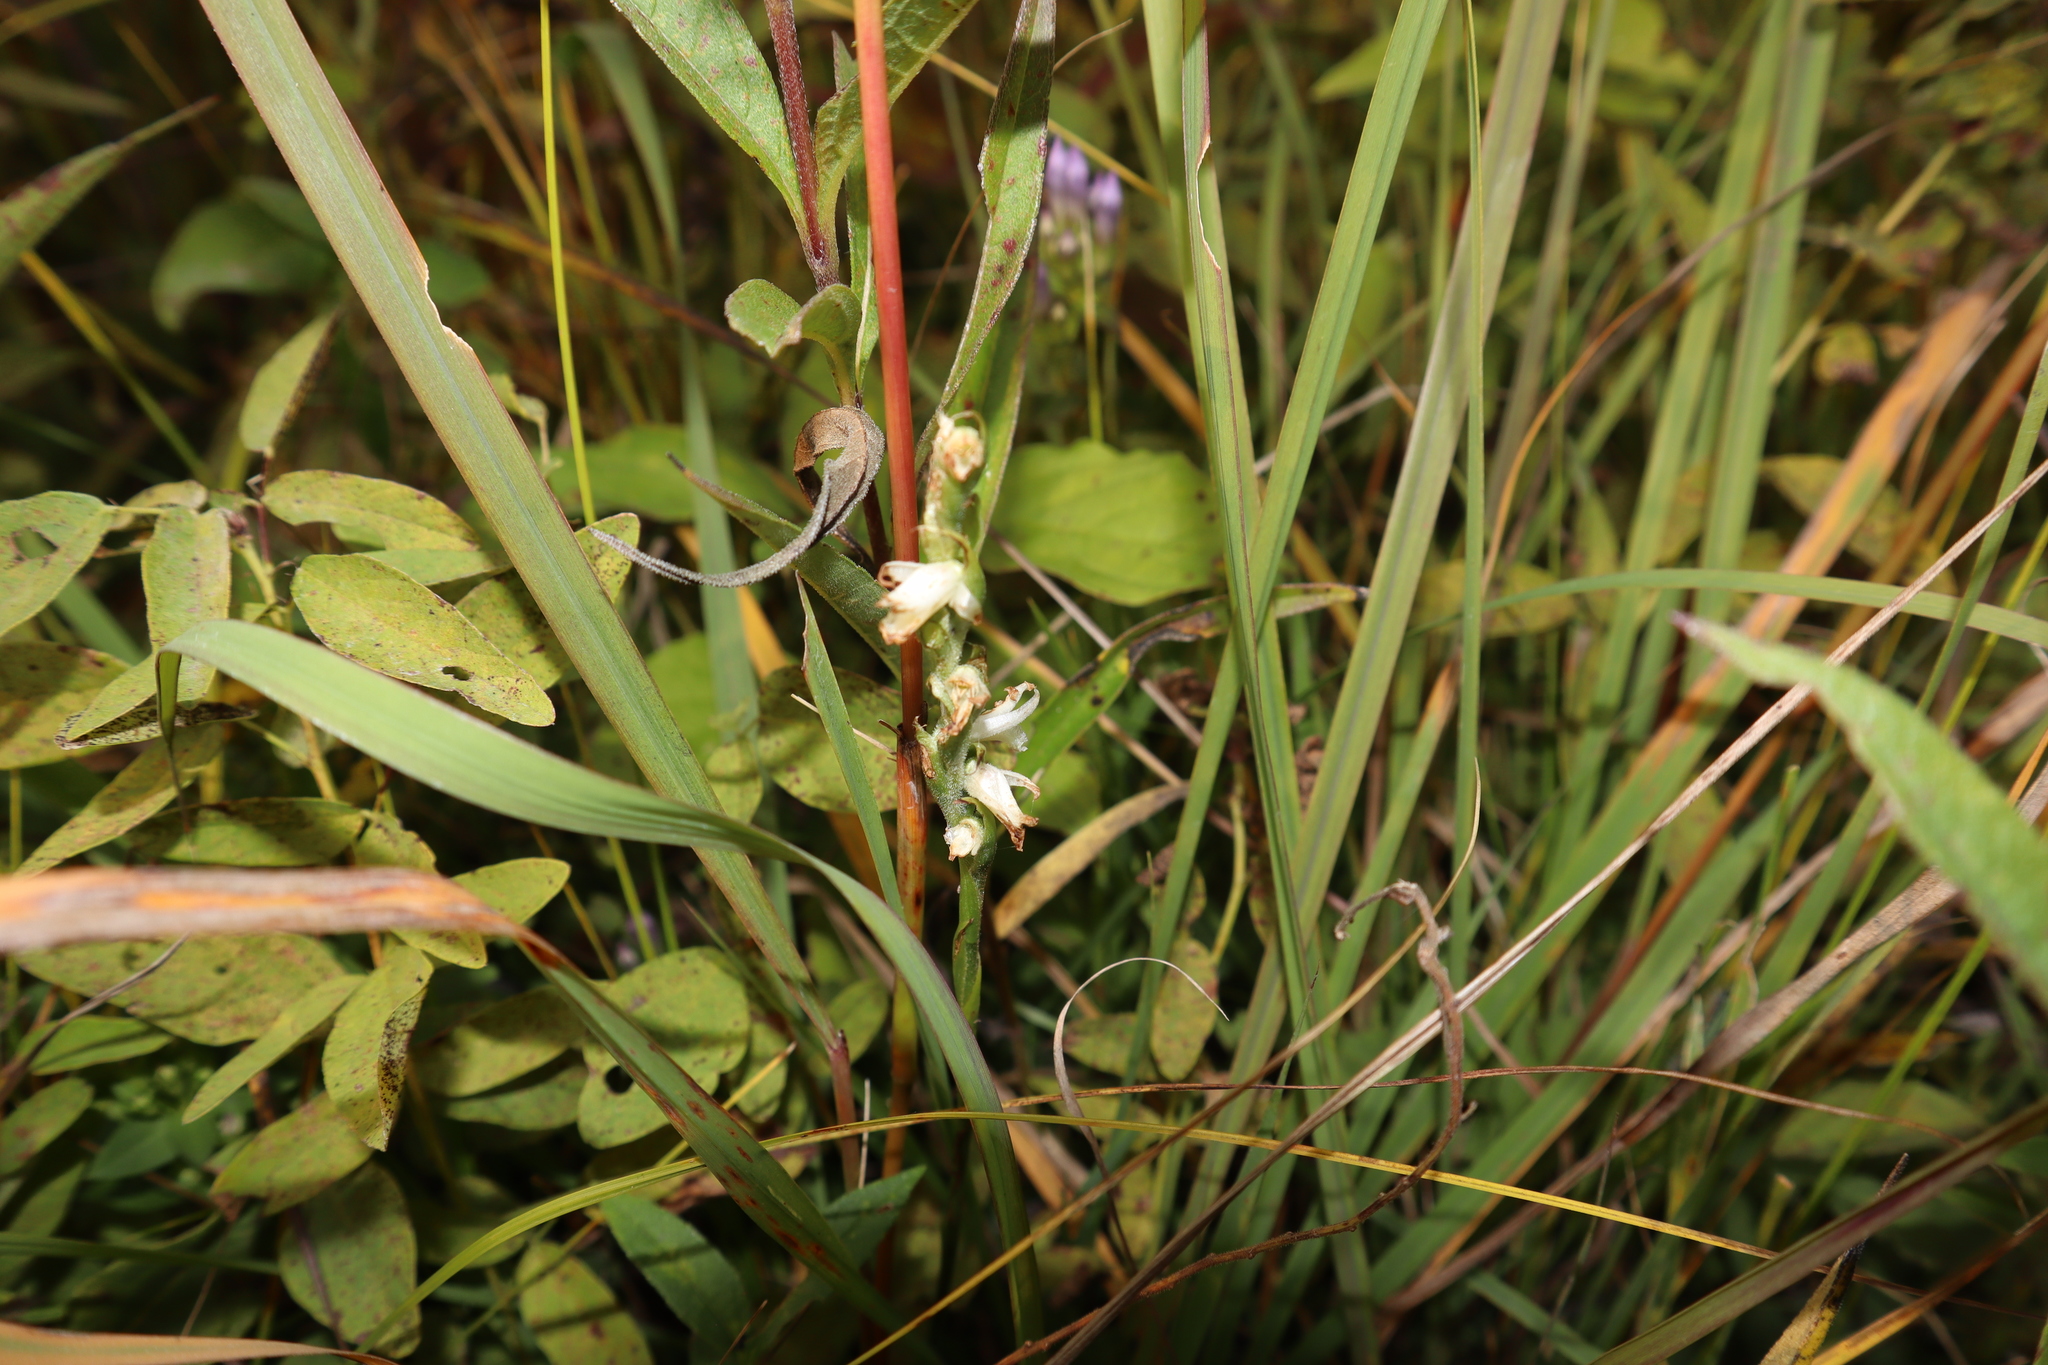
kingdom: Plantae
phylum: Tracheophyta
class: Liliopsida
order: Asparagales
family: Orchidaceae
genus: Spiranthes
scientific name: Spiranthes magnicamporum
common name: Great plains ladies'-tresses
